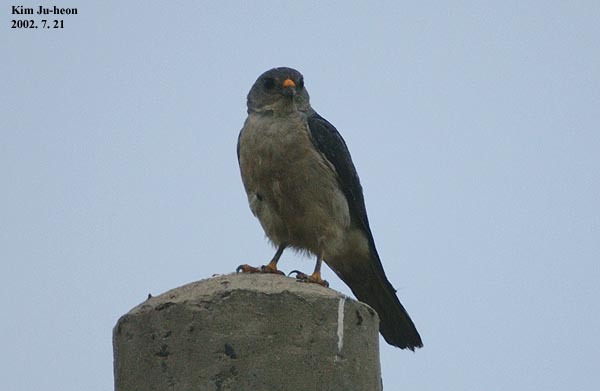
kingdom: Animalia
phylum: Chordata
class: Aves
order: Accipitriformes
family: Accipitridae
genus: Accipiter
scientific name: Accipiter soloensis
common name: Chinese sparrowhawk
